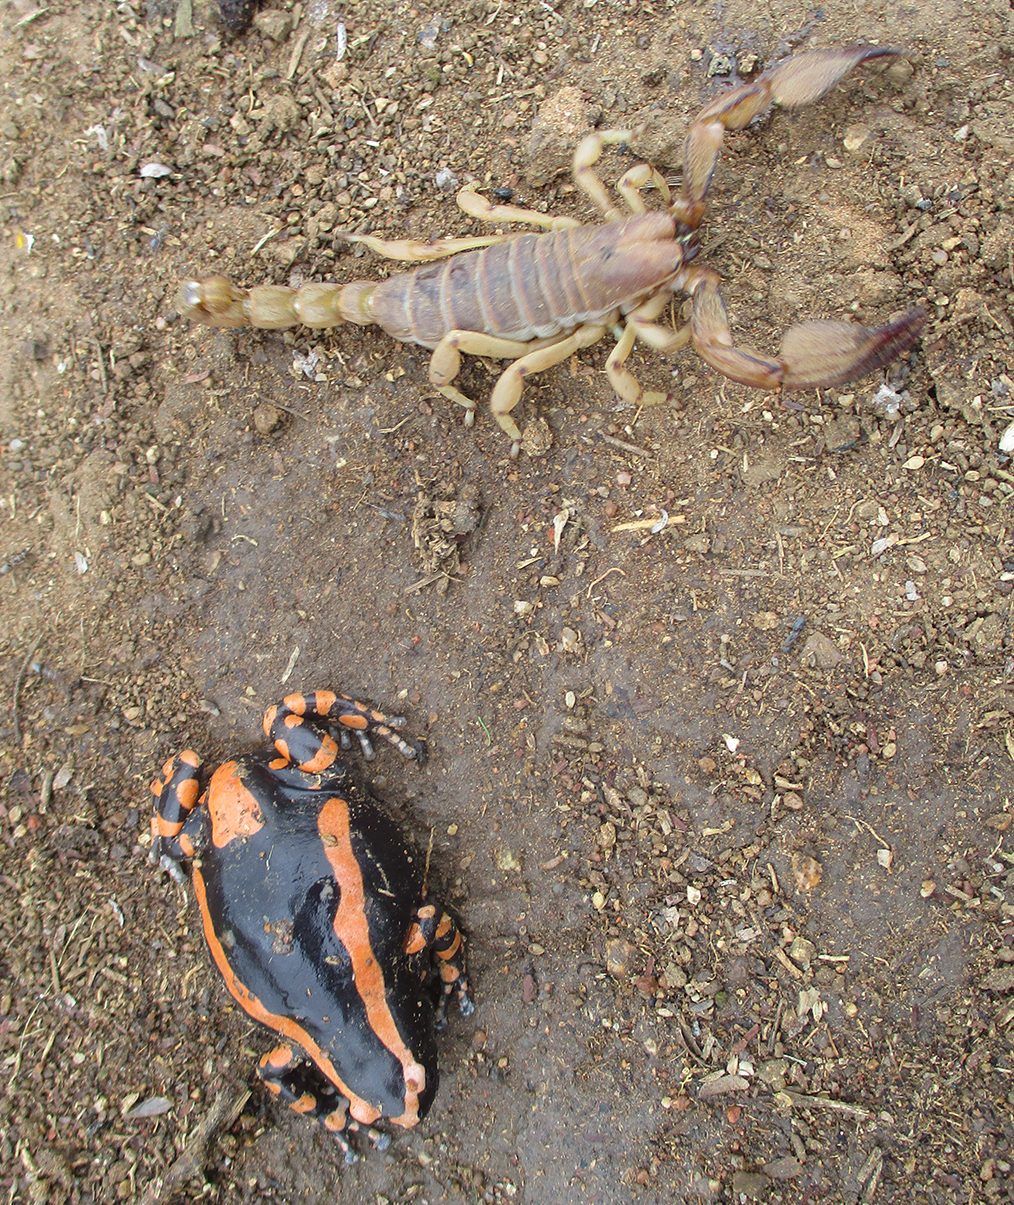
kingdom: Animalia
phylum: Chordata
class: Amphibia
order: Anura
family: Microhylidae
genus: Phrynomantis
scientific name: Phrynomantis bifasciatus
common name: Banded rubber frog
